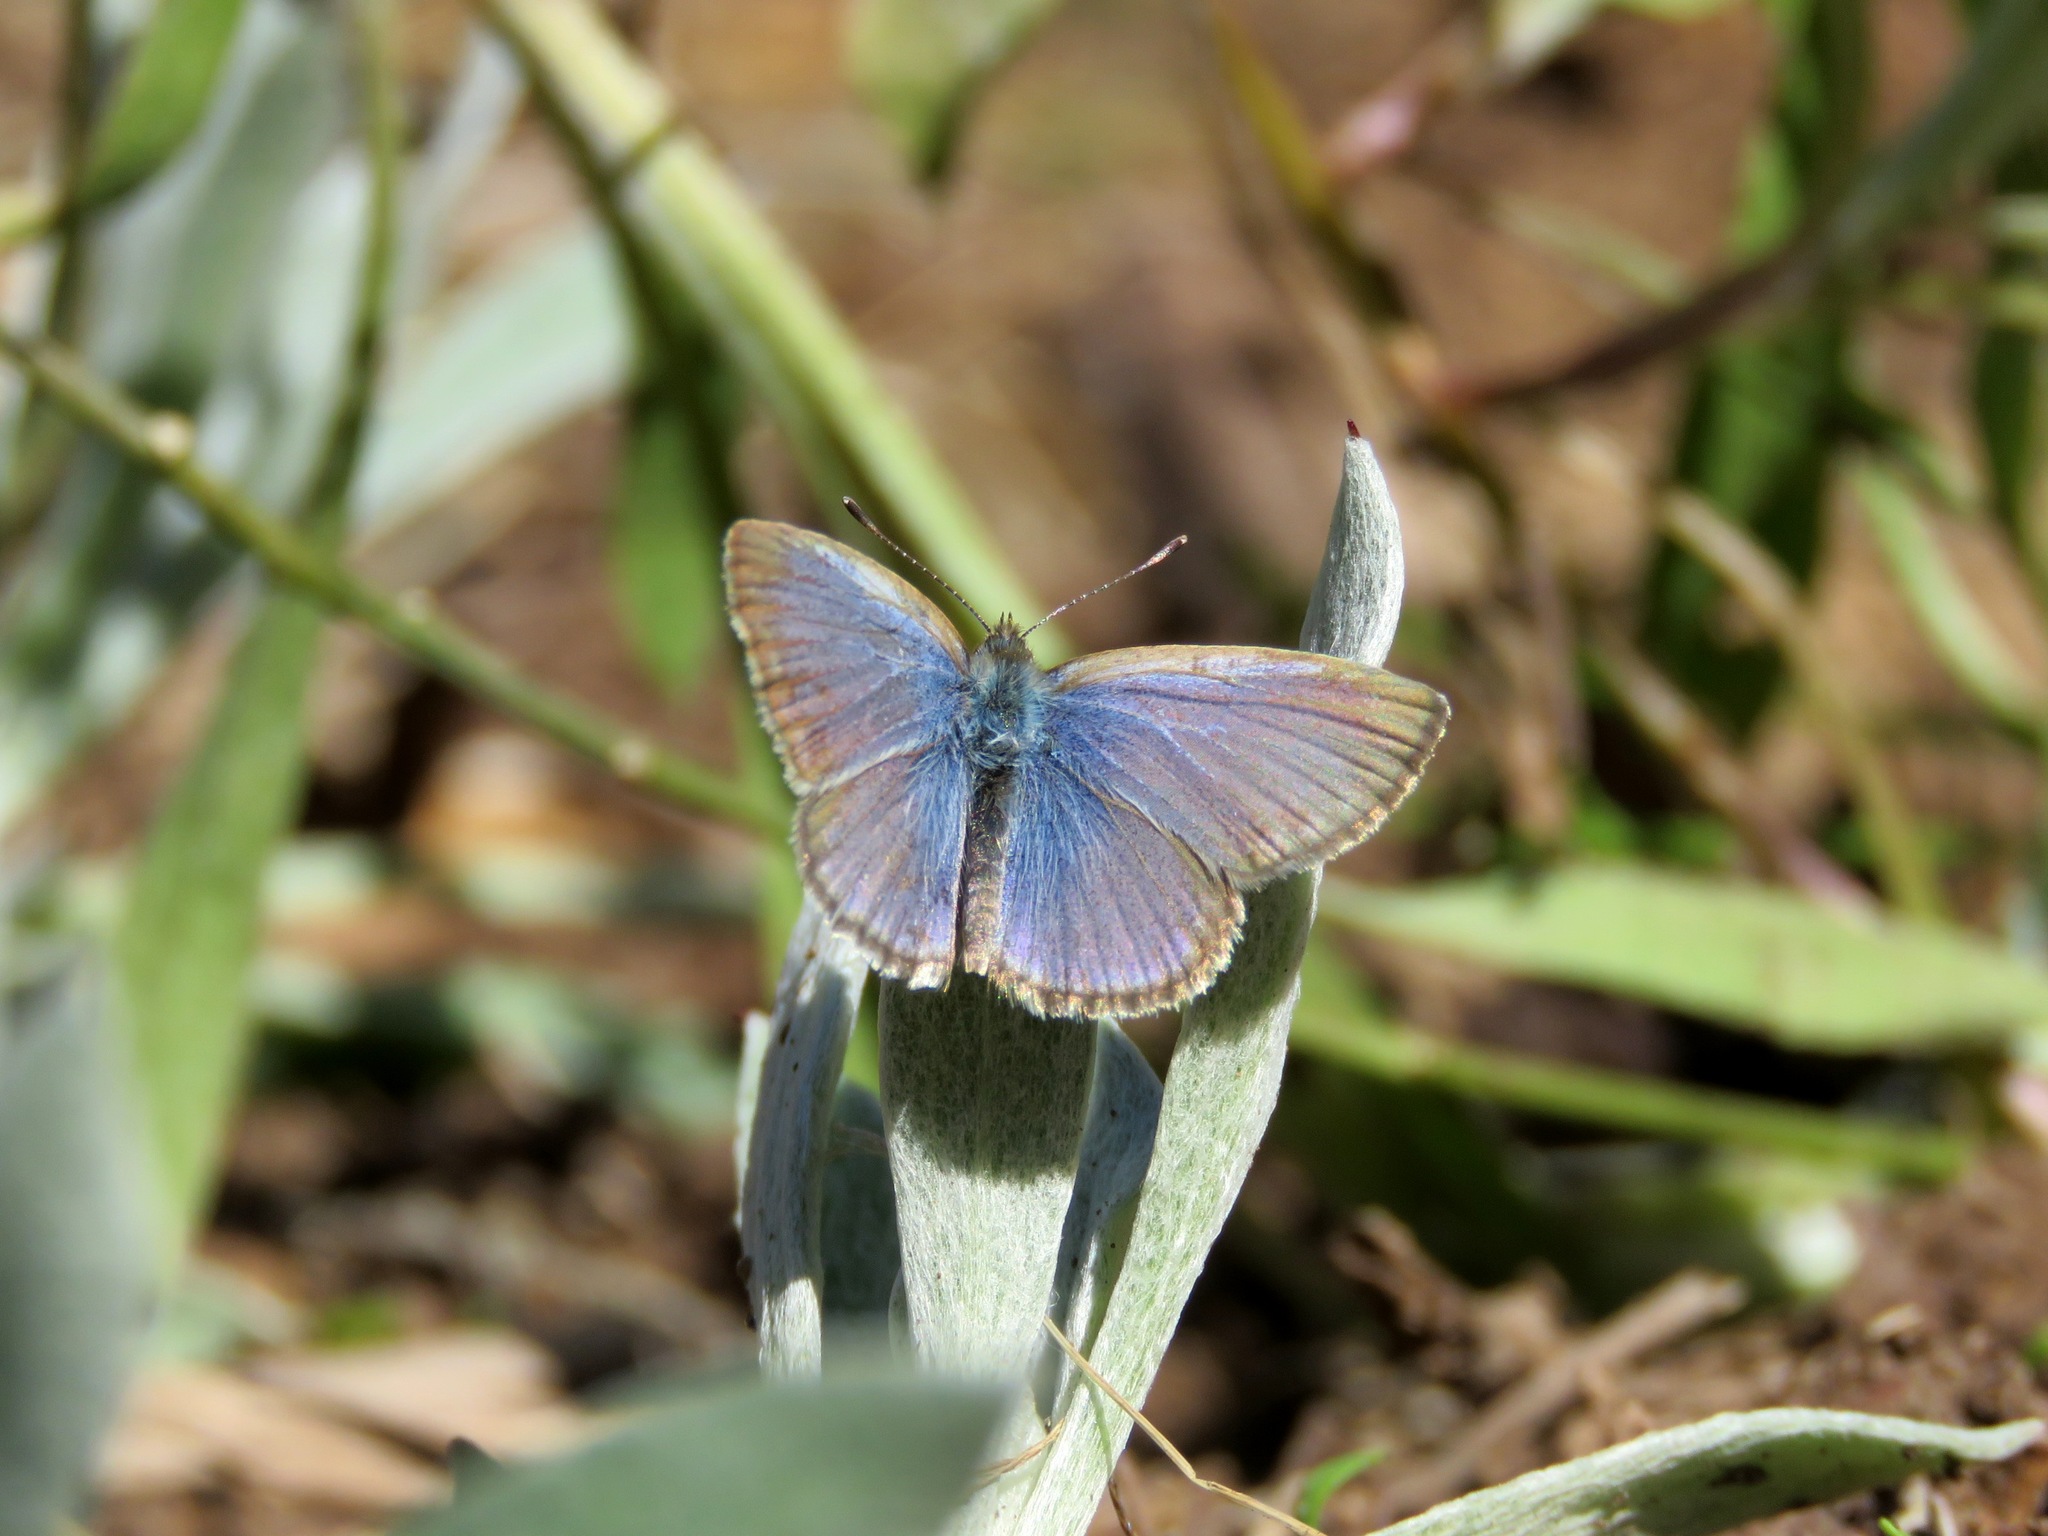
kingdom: Animalia
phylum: Arthropoda
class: Insecta
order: Lepidoptera
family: Lycaenidae
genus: Zizina
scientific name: Zizina labradus
